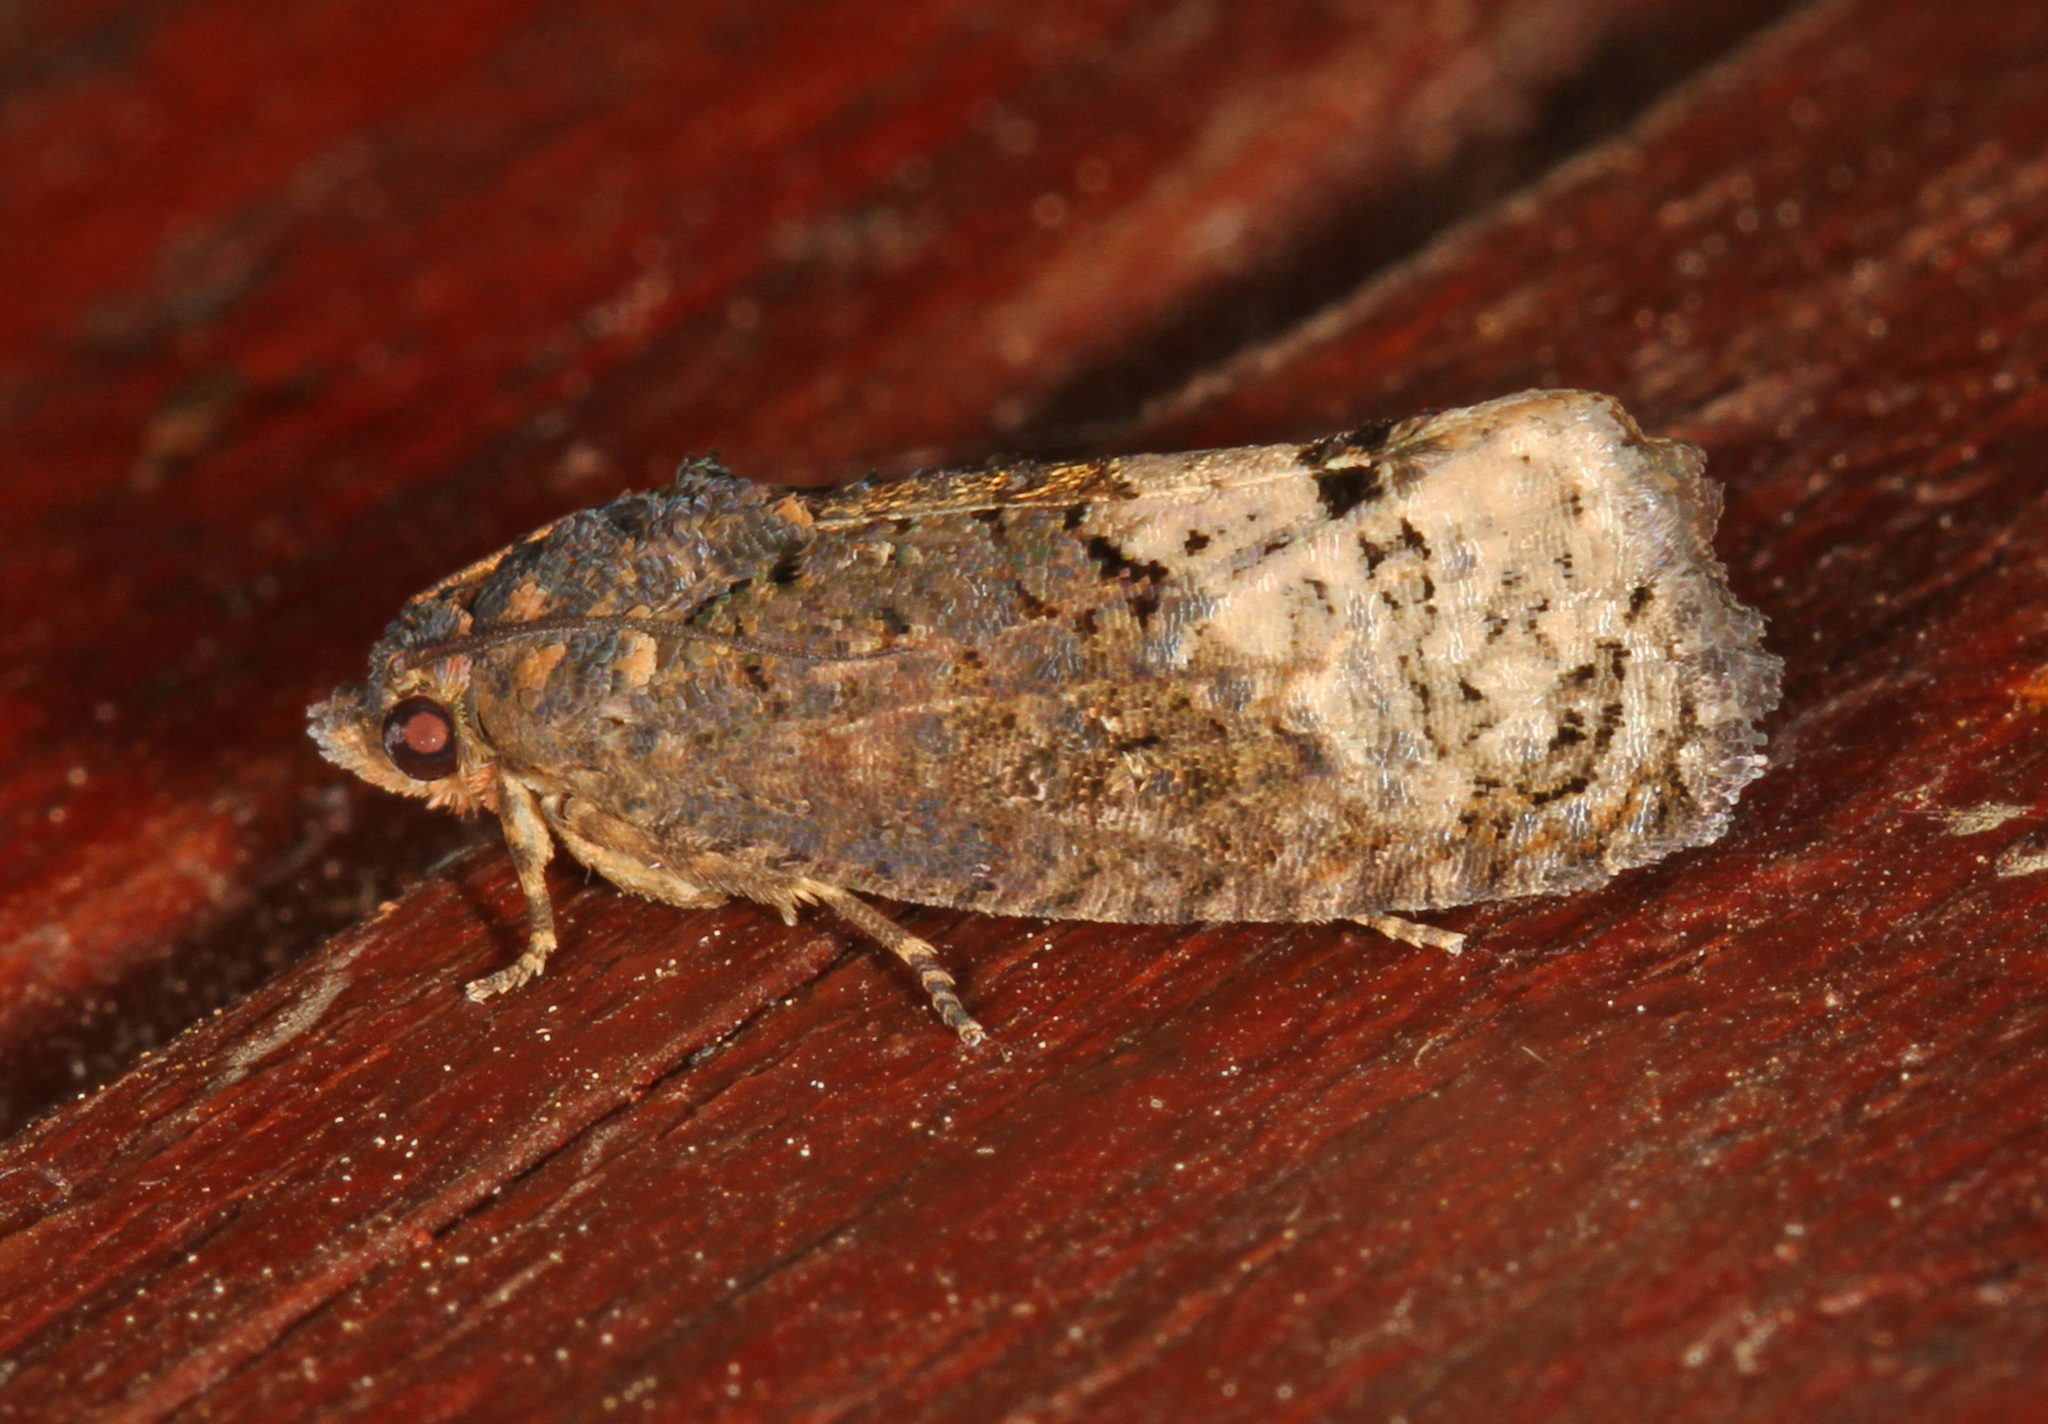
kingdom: Animalia
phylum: Arthropoda
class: Insecta
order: Lepidoptera
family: Tortricidae
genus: Ecdytolopha
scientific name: Ecdytolopha insiticiana
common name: Locust twig borer moth
